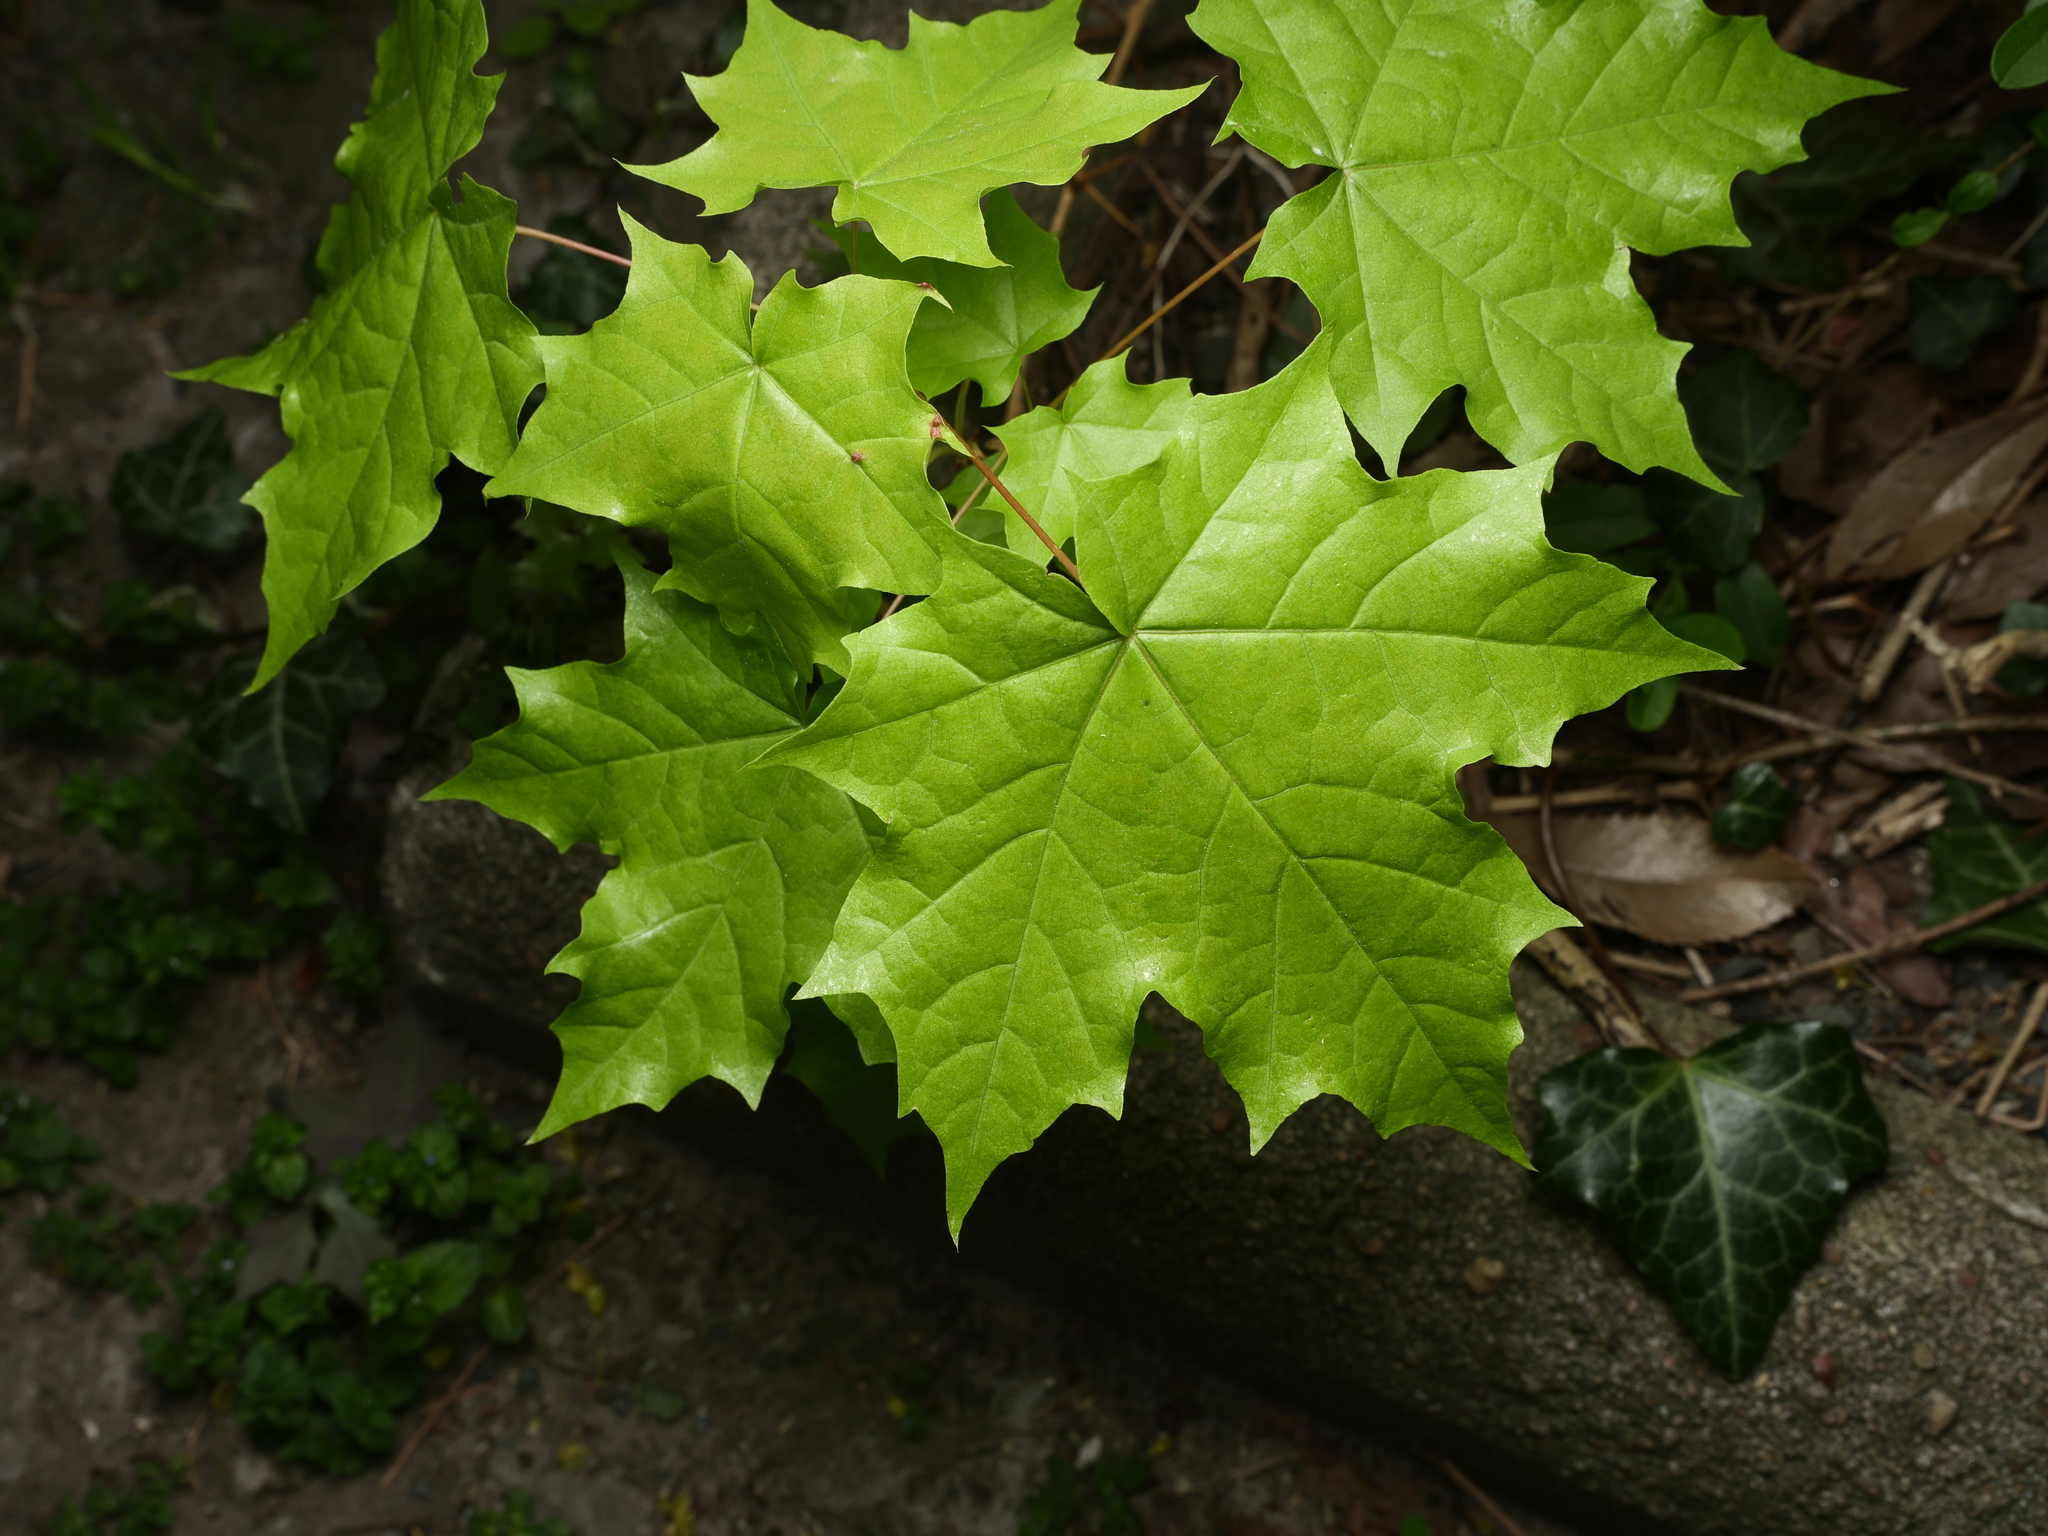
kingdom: Plantae
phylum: Tracheophyta
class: Magnoliopsida
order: Sapindales
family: Sapindaceae
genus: Acer
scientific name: Acer platanoides
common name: Norway maple
